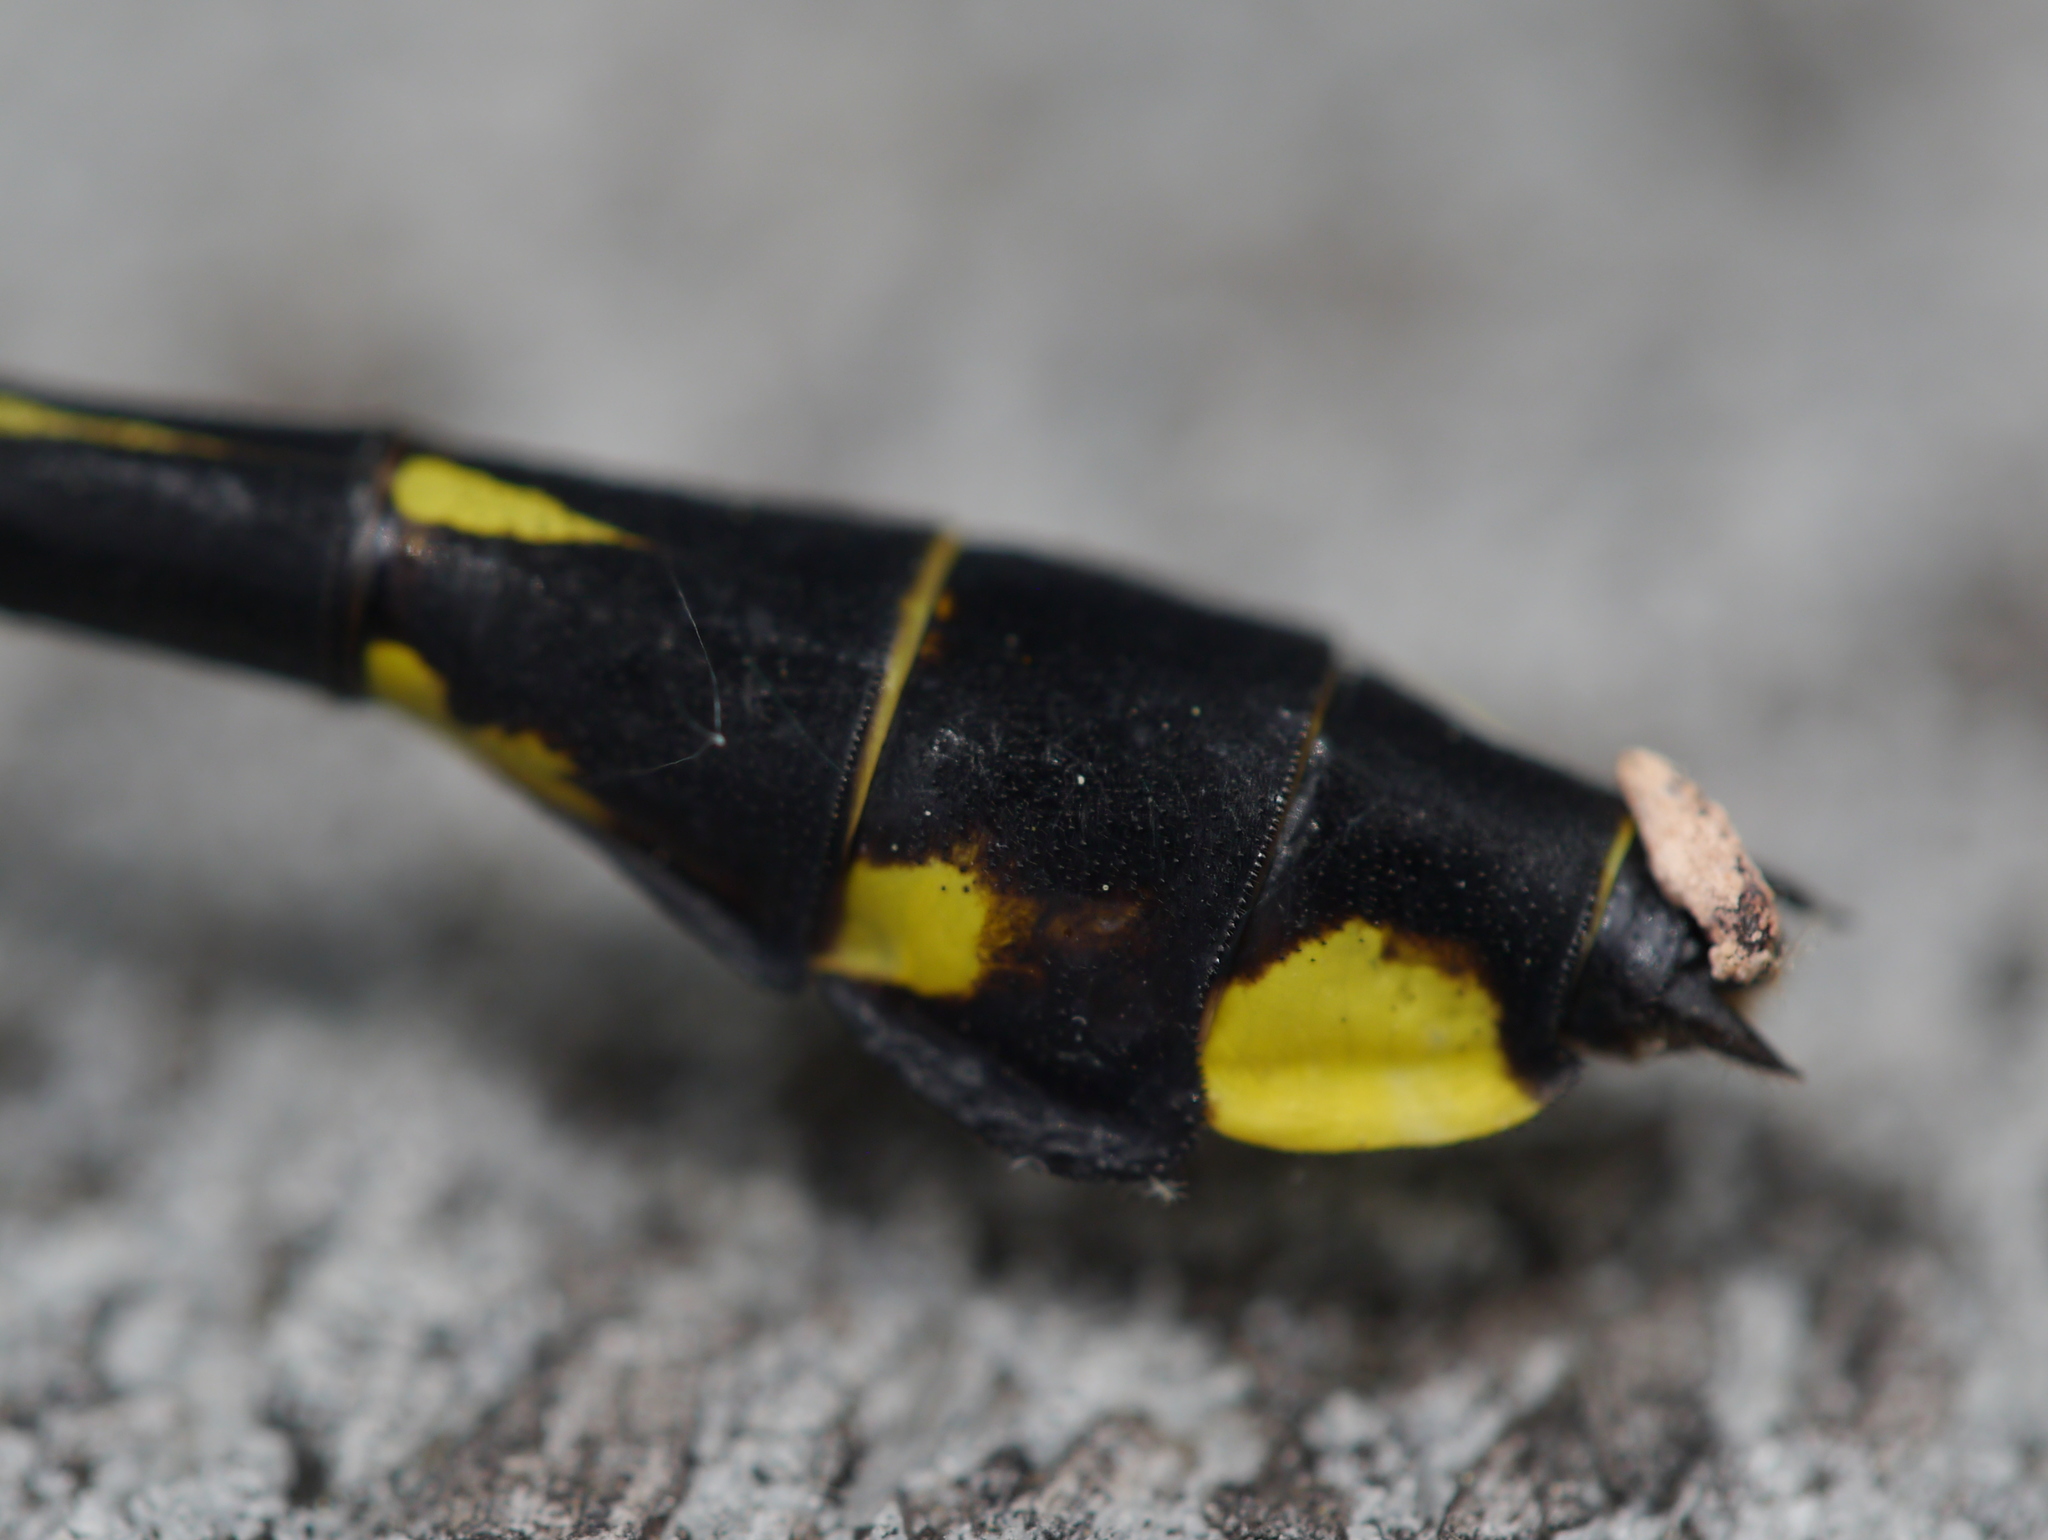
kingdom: Animalia
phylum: Arthropoda
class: Insecta
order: Odonata
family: Gomphidae
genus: Gomphurus
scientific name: Gomphurus vastus
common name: Cobra clubtail
